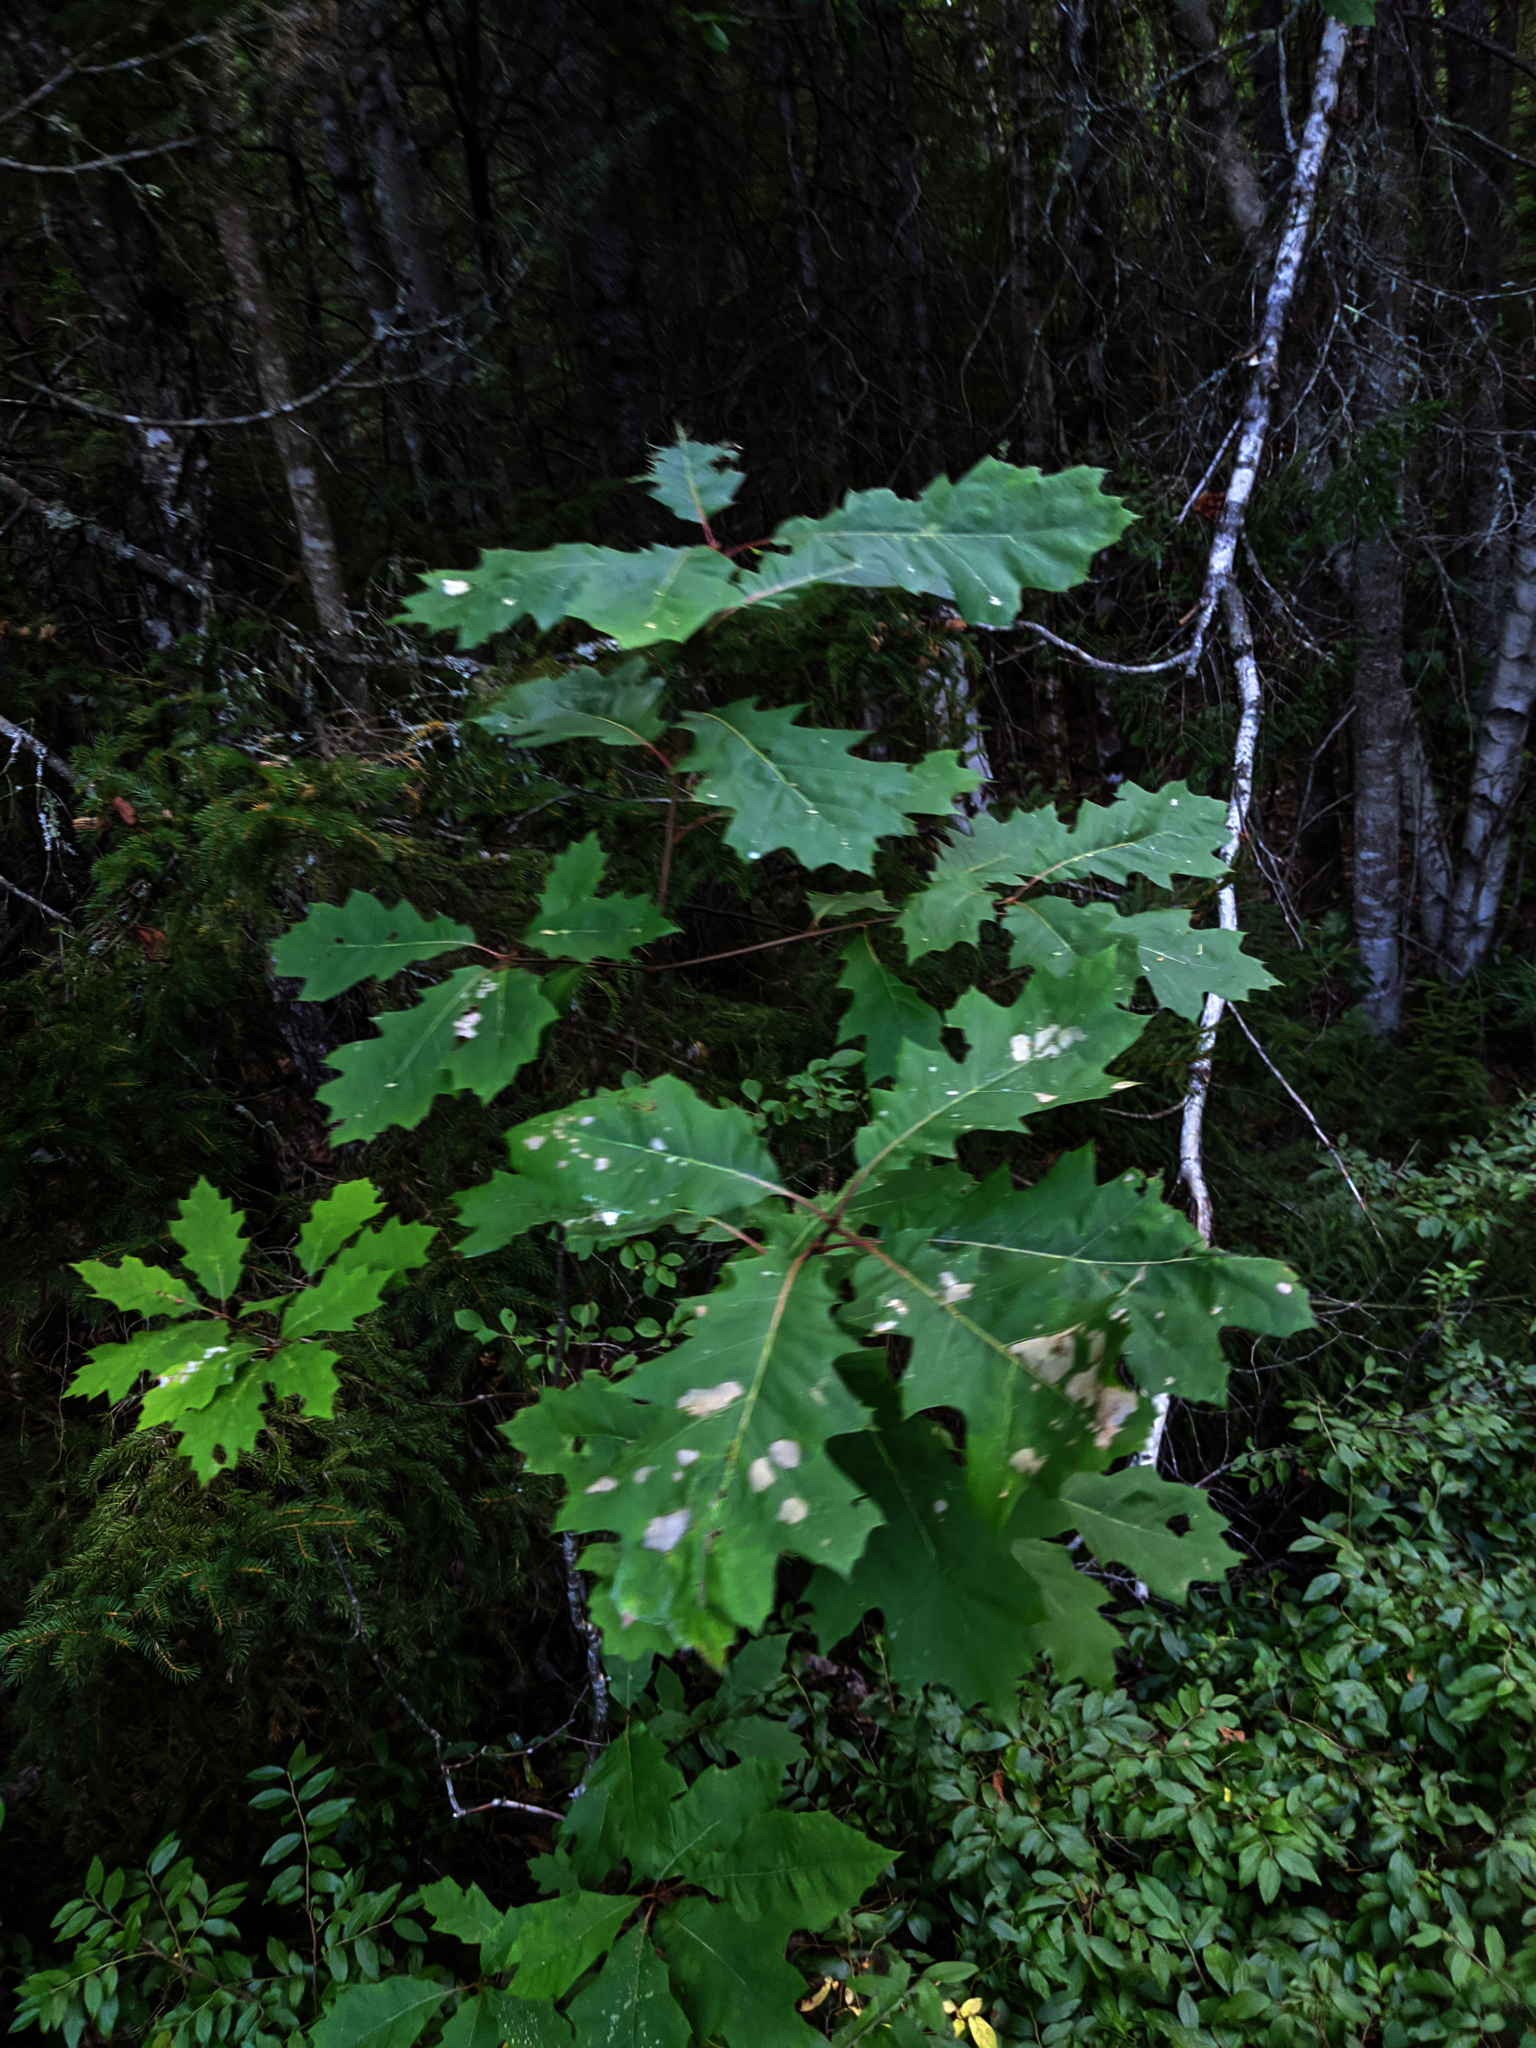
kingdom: Plantae
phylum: Tracheophyta
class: Magnoliopsida
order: Fagales
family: Fagaceae
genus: Quercus
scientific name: Quercus rubra
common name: Red oak
